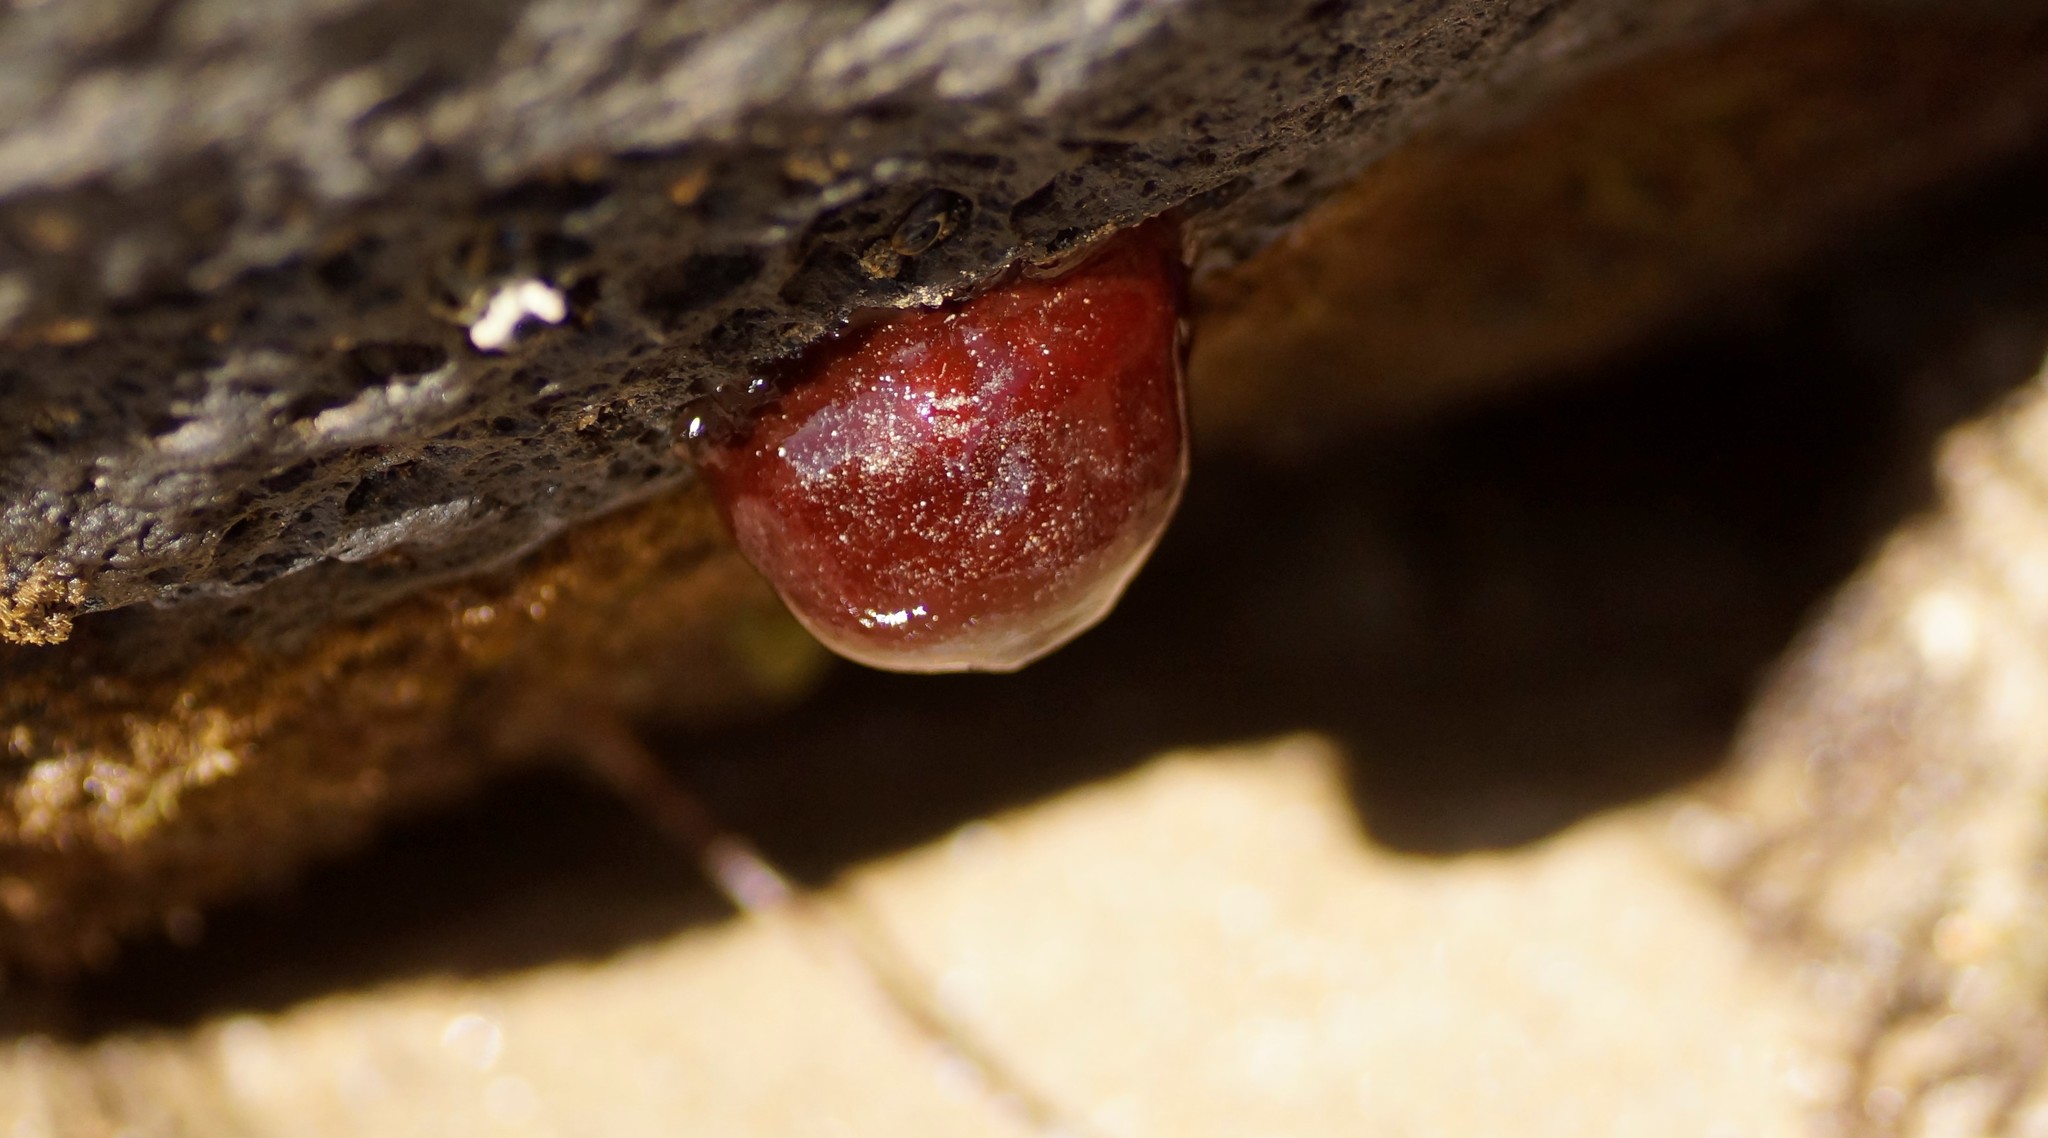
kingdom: Animalia
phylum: Cnidaria
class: Anthozoa
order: Actiniaria
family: Actiniidae
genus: Actinia
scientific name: Actinia tenebrosa
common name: Waratah anemone
